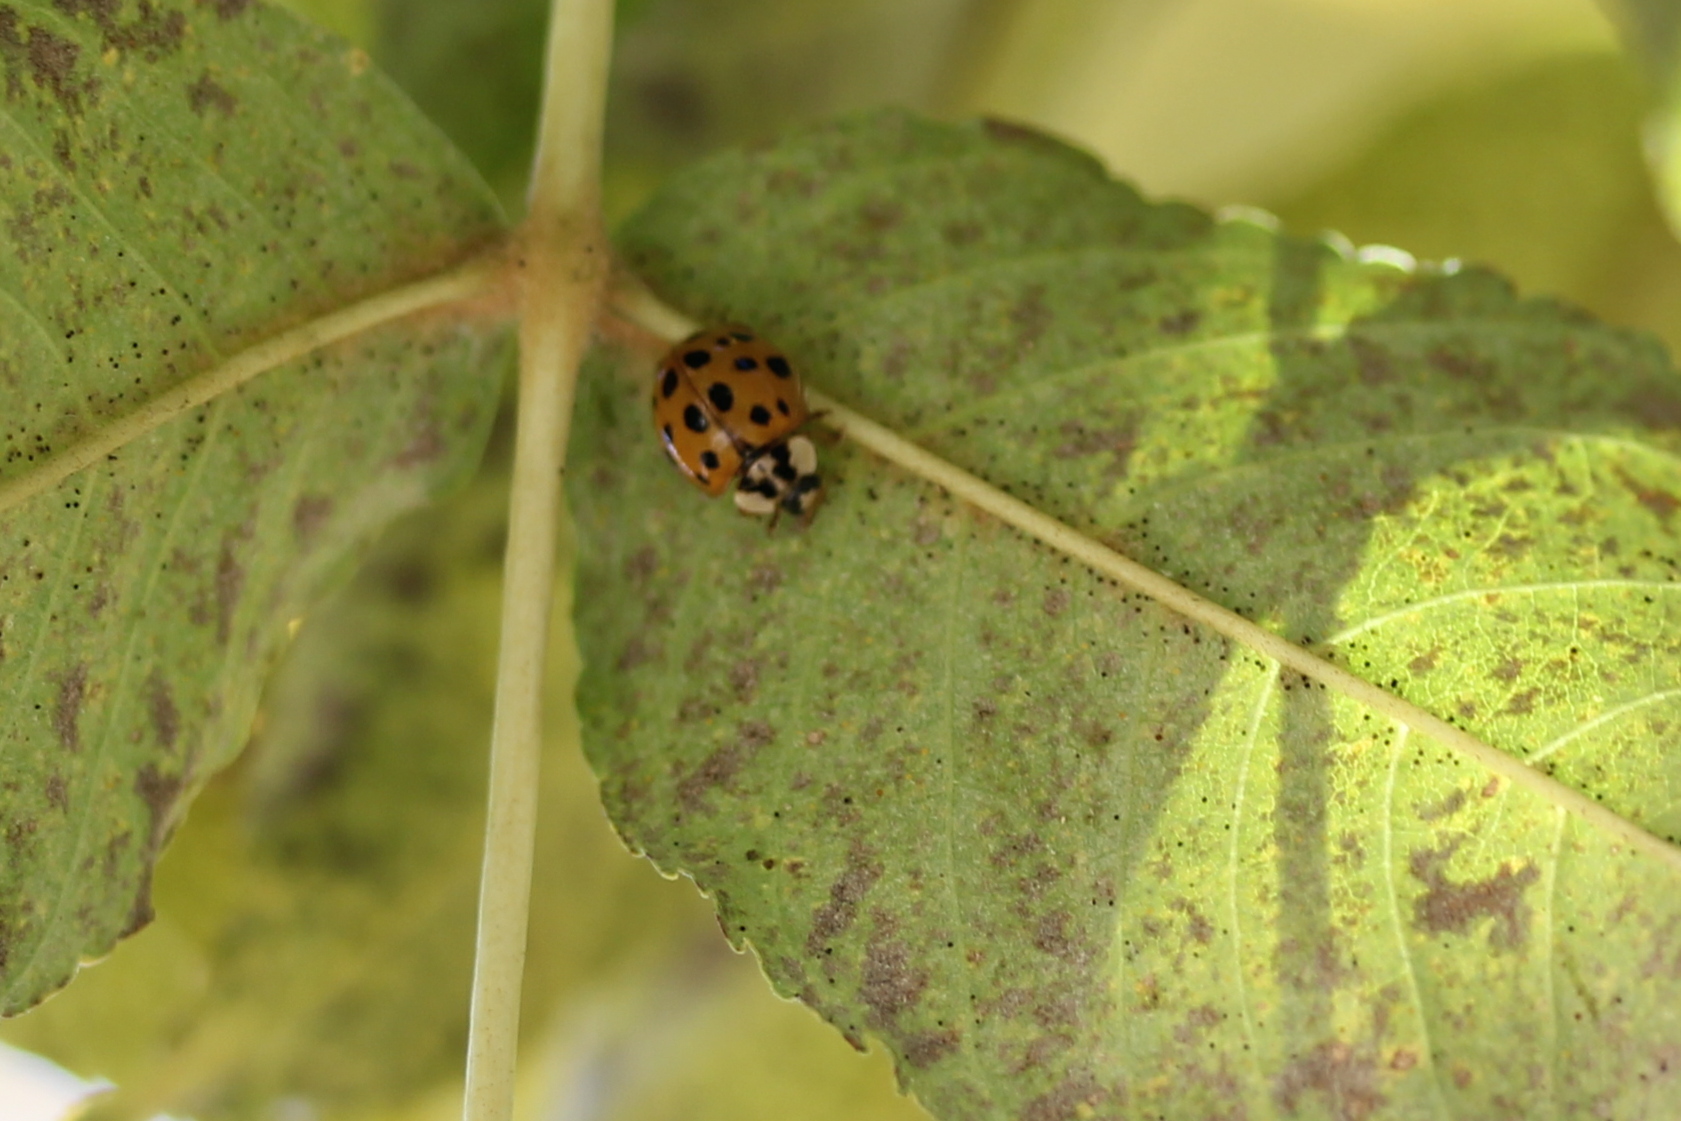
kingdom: Animalia
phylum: Arthropoda
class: Insecta
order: Coleoptera
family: Coccinellidae
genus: Harmonia
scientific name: Harmonia axyridis
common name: Harlequin ladybird
